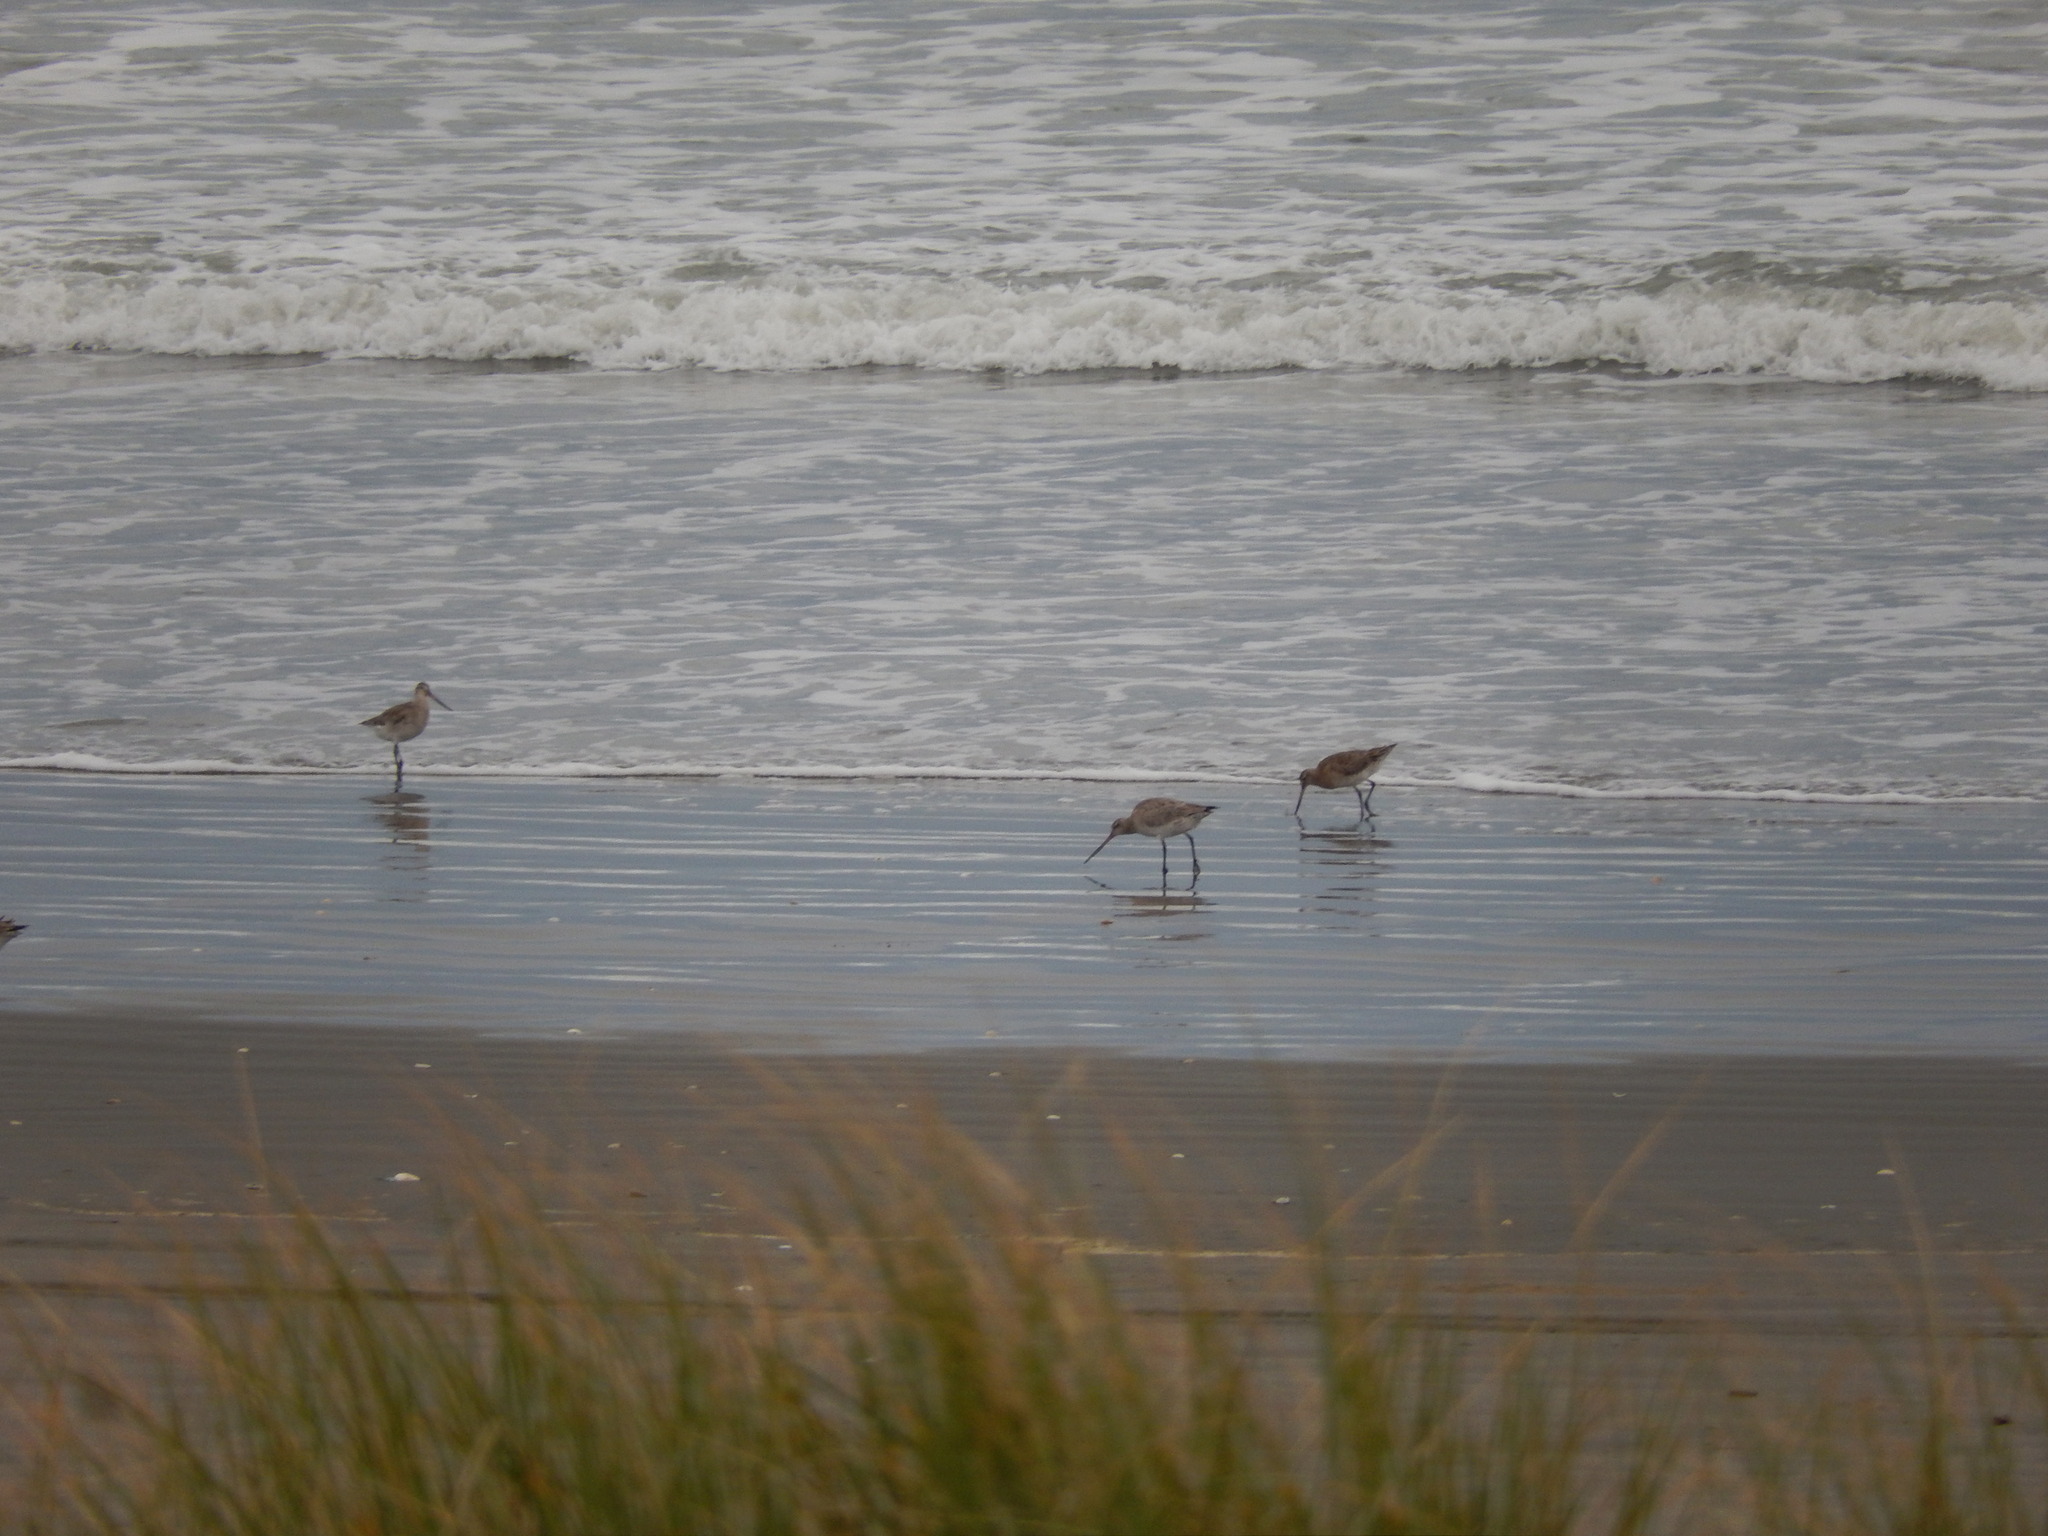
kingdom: Animalia
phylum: Chordata
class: Aves
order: Charadriiformes
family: Scolopacidae
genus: Limosa
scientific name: Limosa lapponica
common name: Bar-tailed godwit
